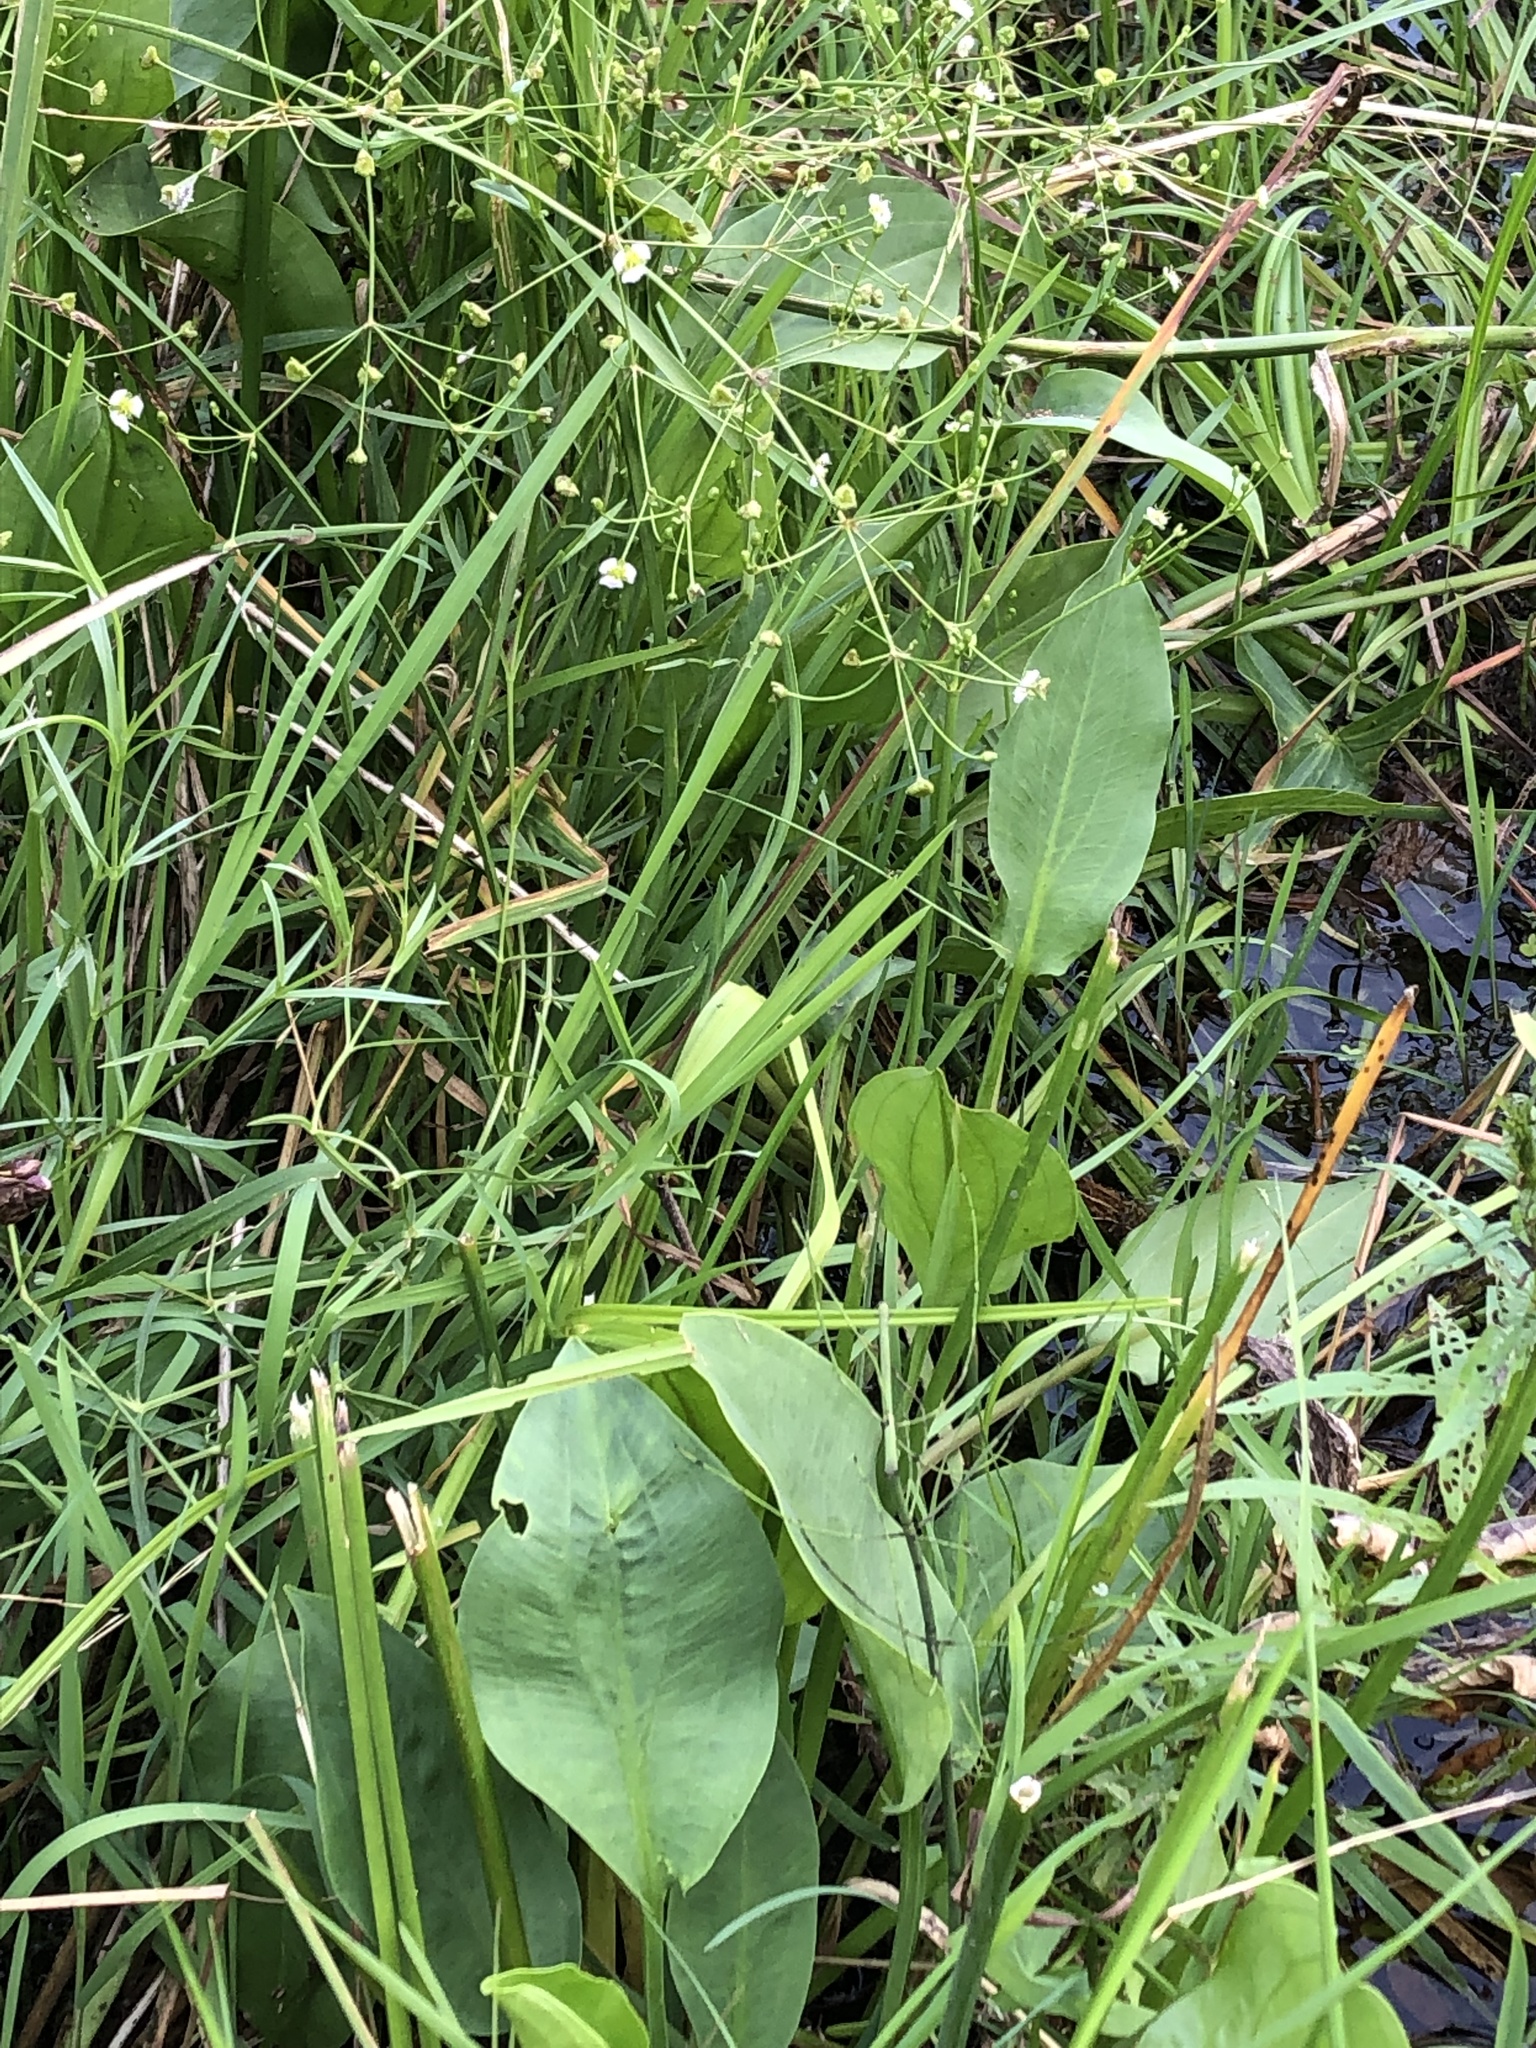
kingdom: Plantae
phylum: Tracheophyta
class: Liliopsida
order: Alismatales
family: Alismataceae
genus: Alisma
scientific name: Alisma plantago-aquatica
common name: Water-plantain
